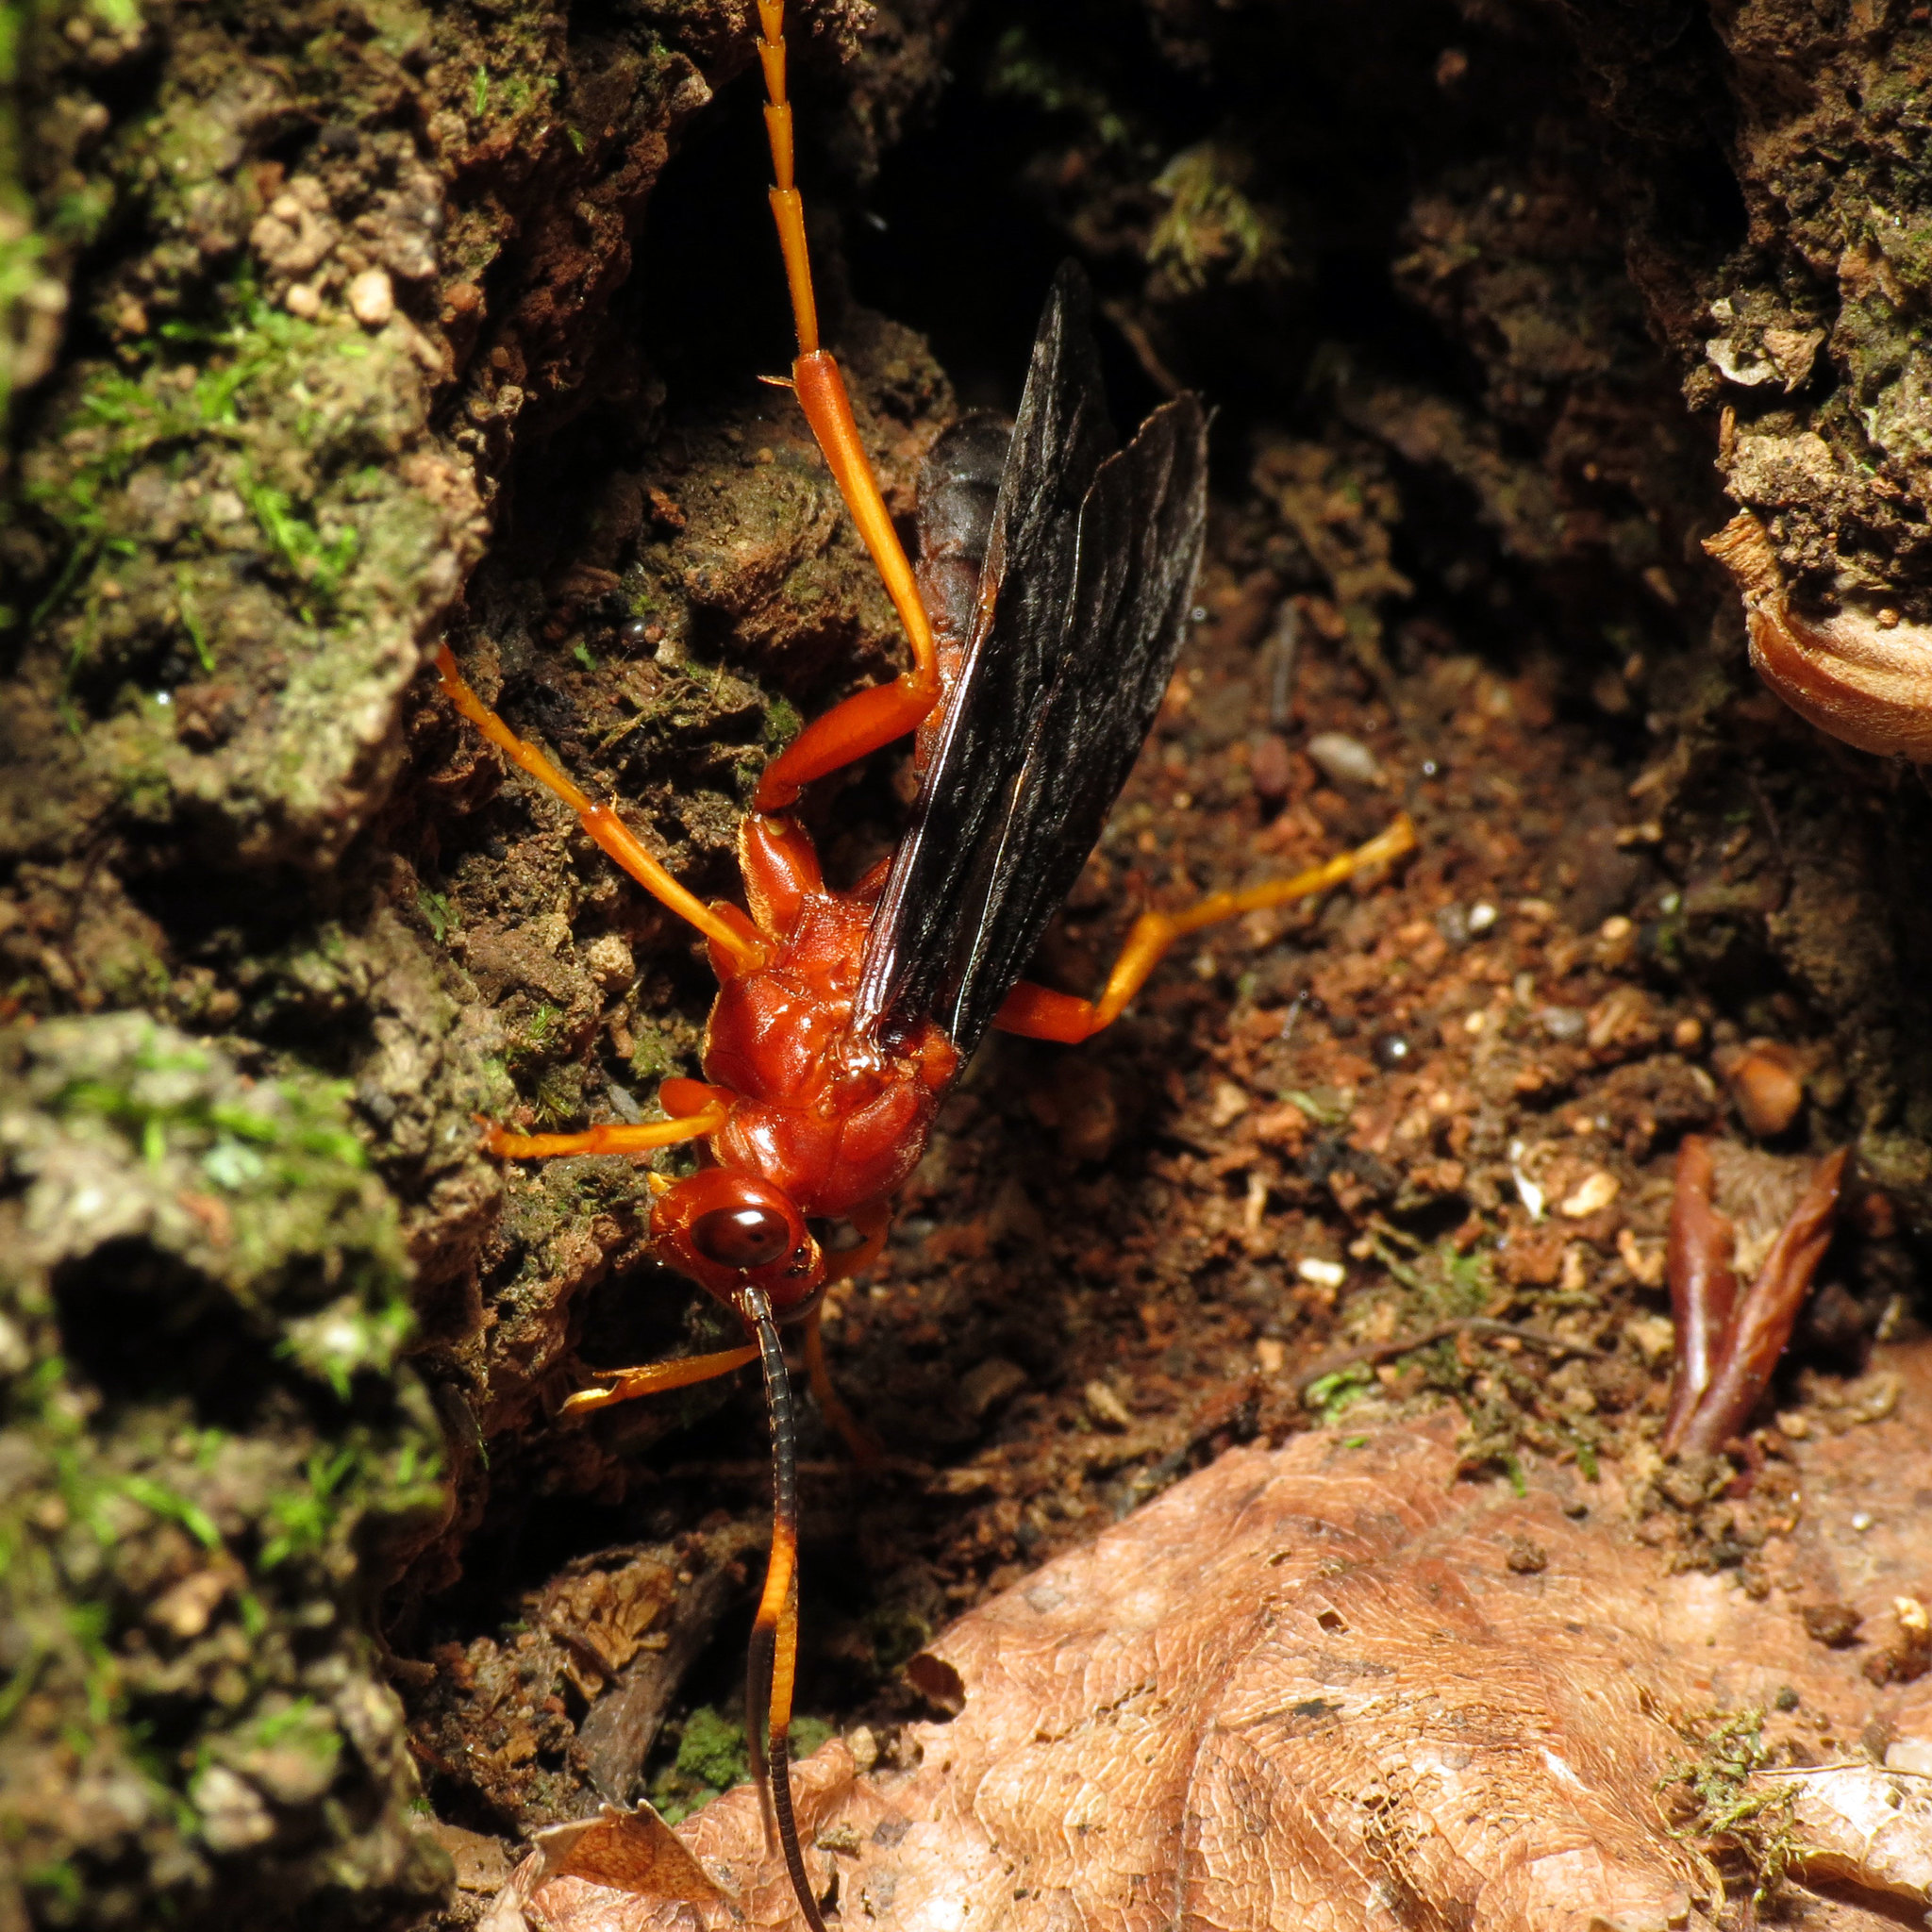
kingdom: Animalia
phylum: Arthropoda
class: Insecta
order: Hymenoptera
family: Ichneumonidae
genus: Tmetogaster
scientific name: Tmetogaster nubilipennis
